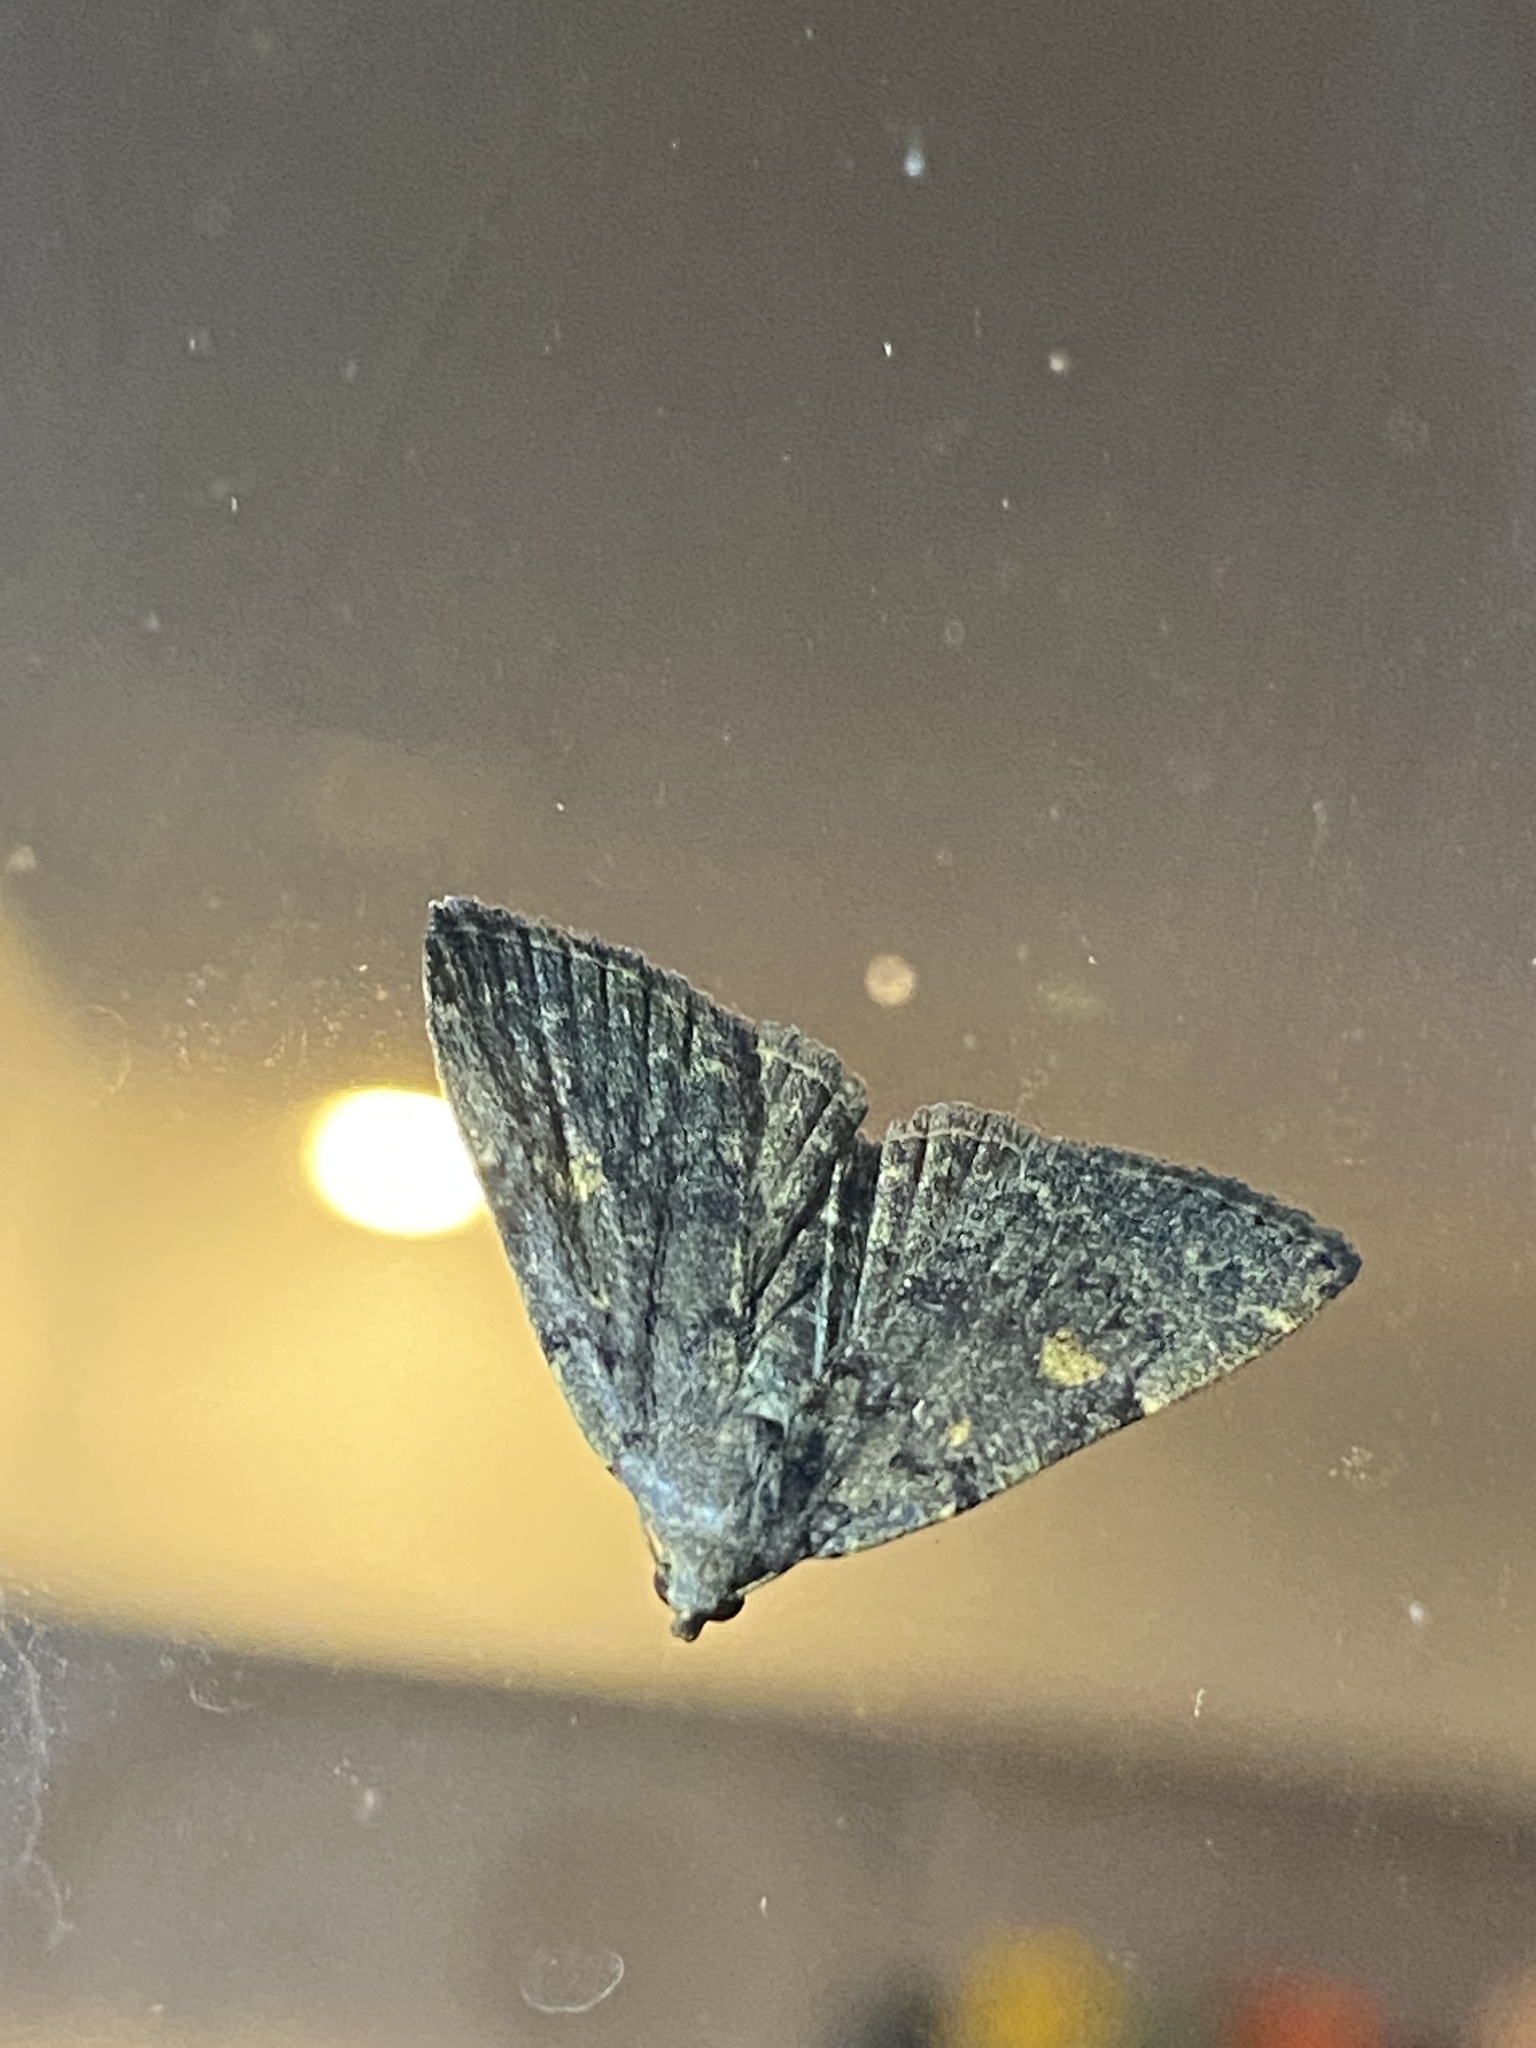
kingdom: Animalia
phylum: Arthropoda
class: Insecta
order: Lepidoptera
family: Erebidae
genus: Idia
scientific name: Idia aemula
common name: Common idia moth
